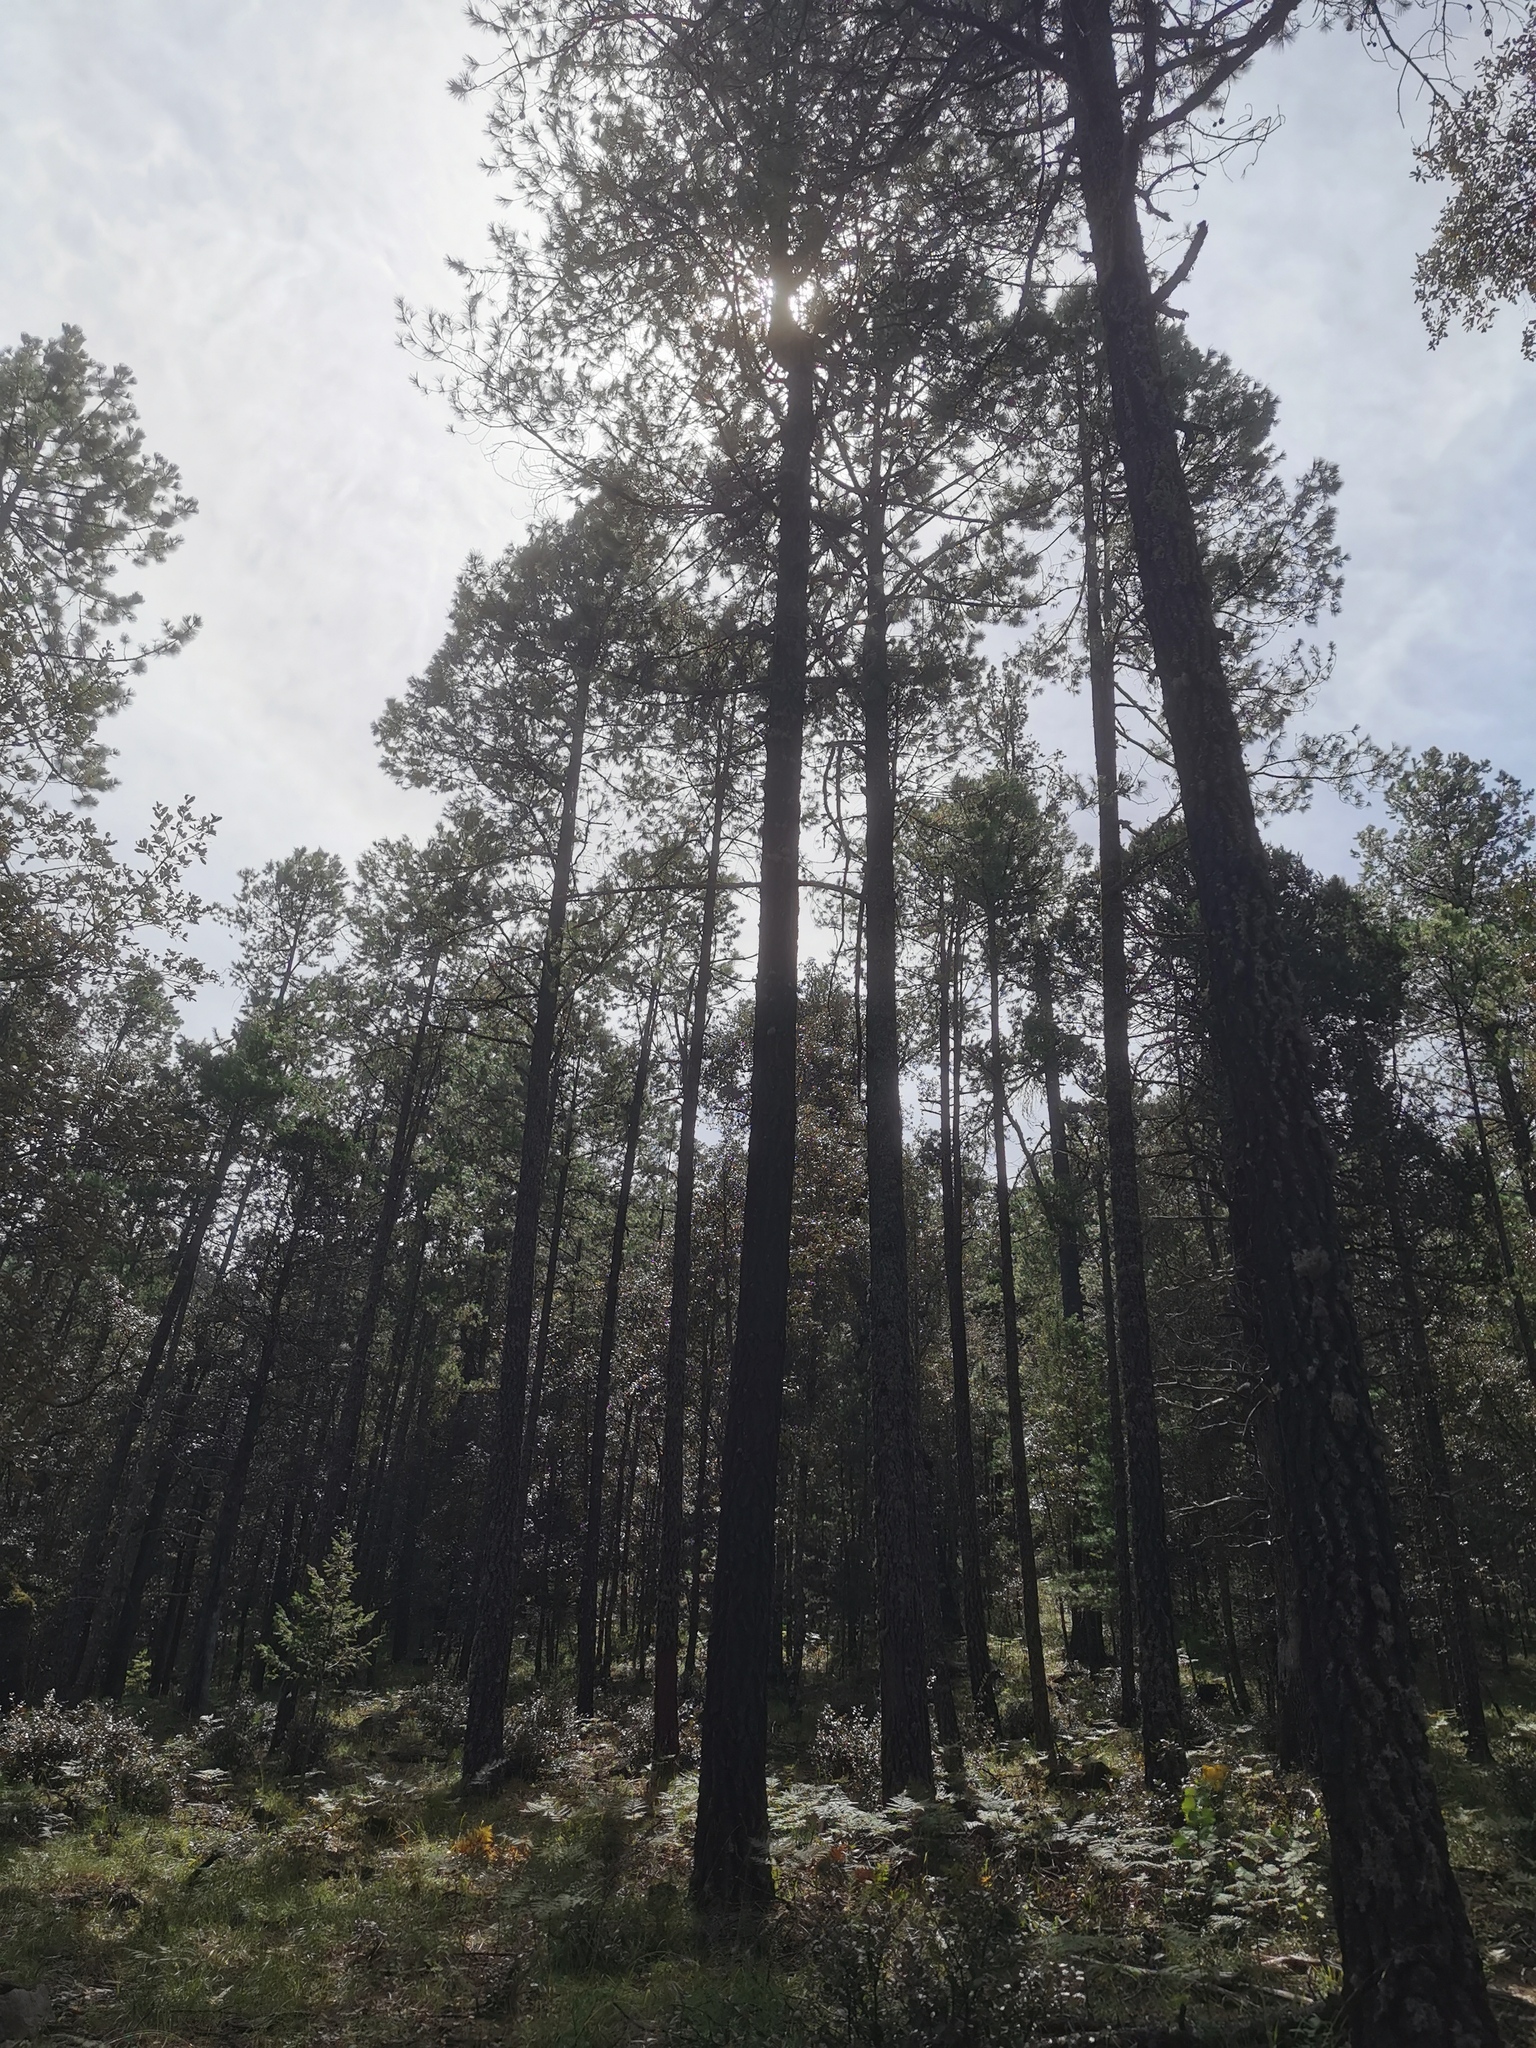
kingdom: Plantae
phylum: Tracheophyta
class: Pinopsida
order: Pinales
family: Pinaceae
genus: Pinus
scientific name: Pinus arizonica
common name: Arizona pine
